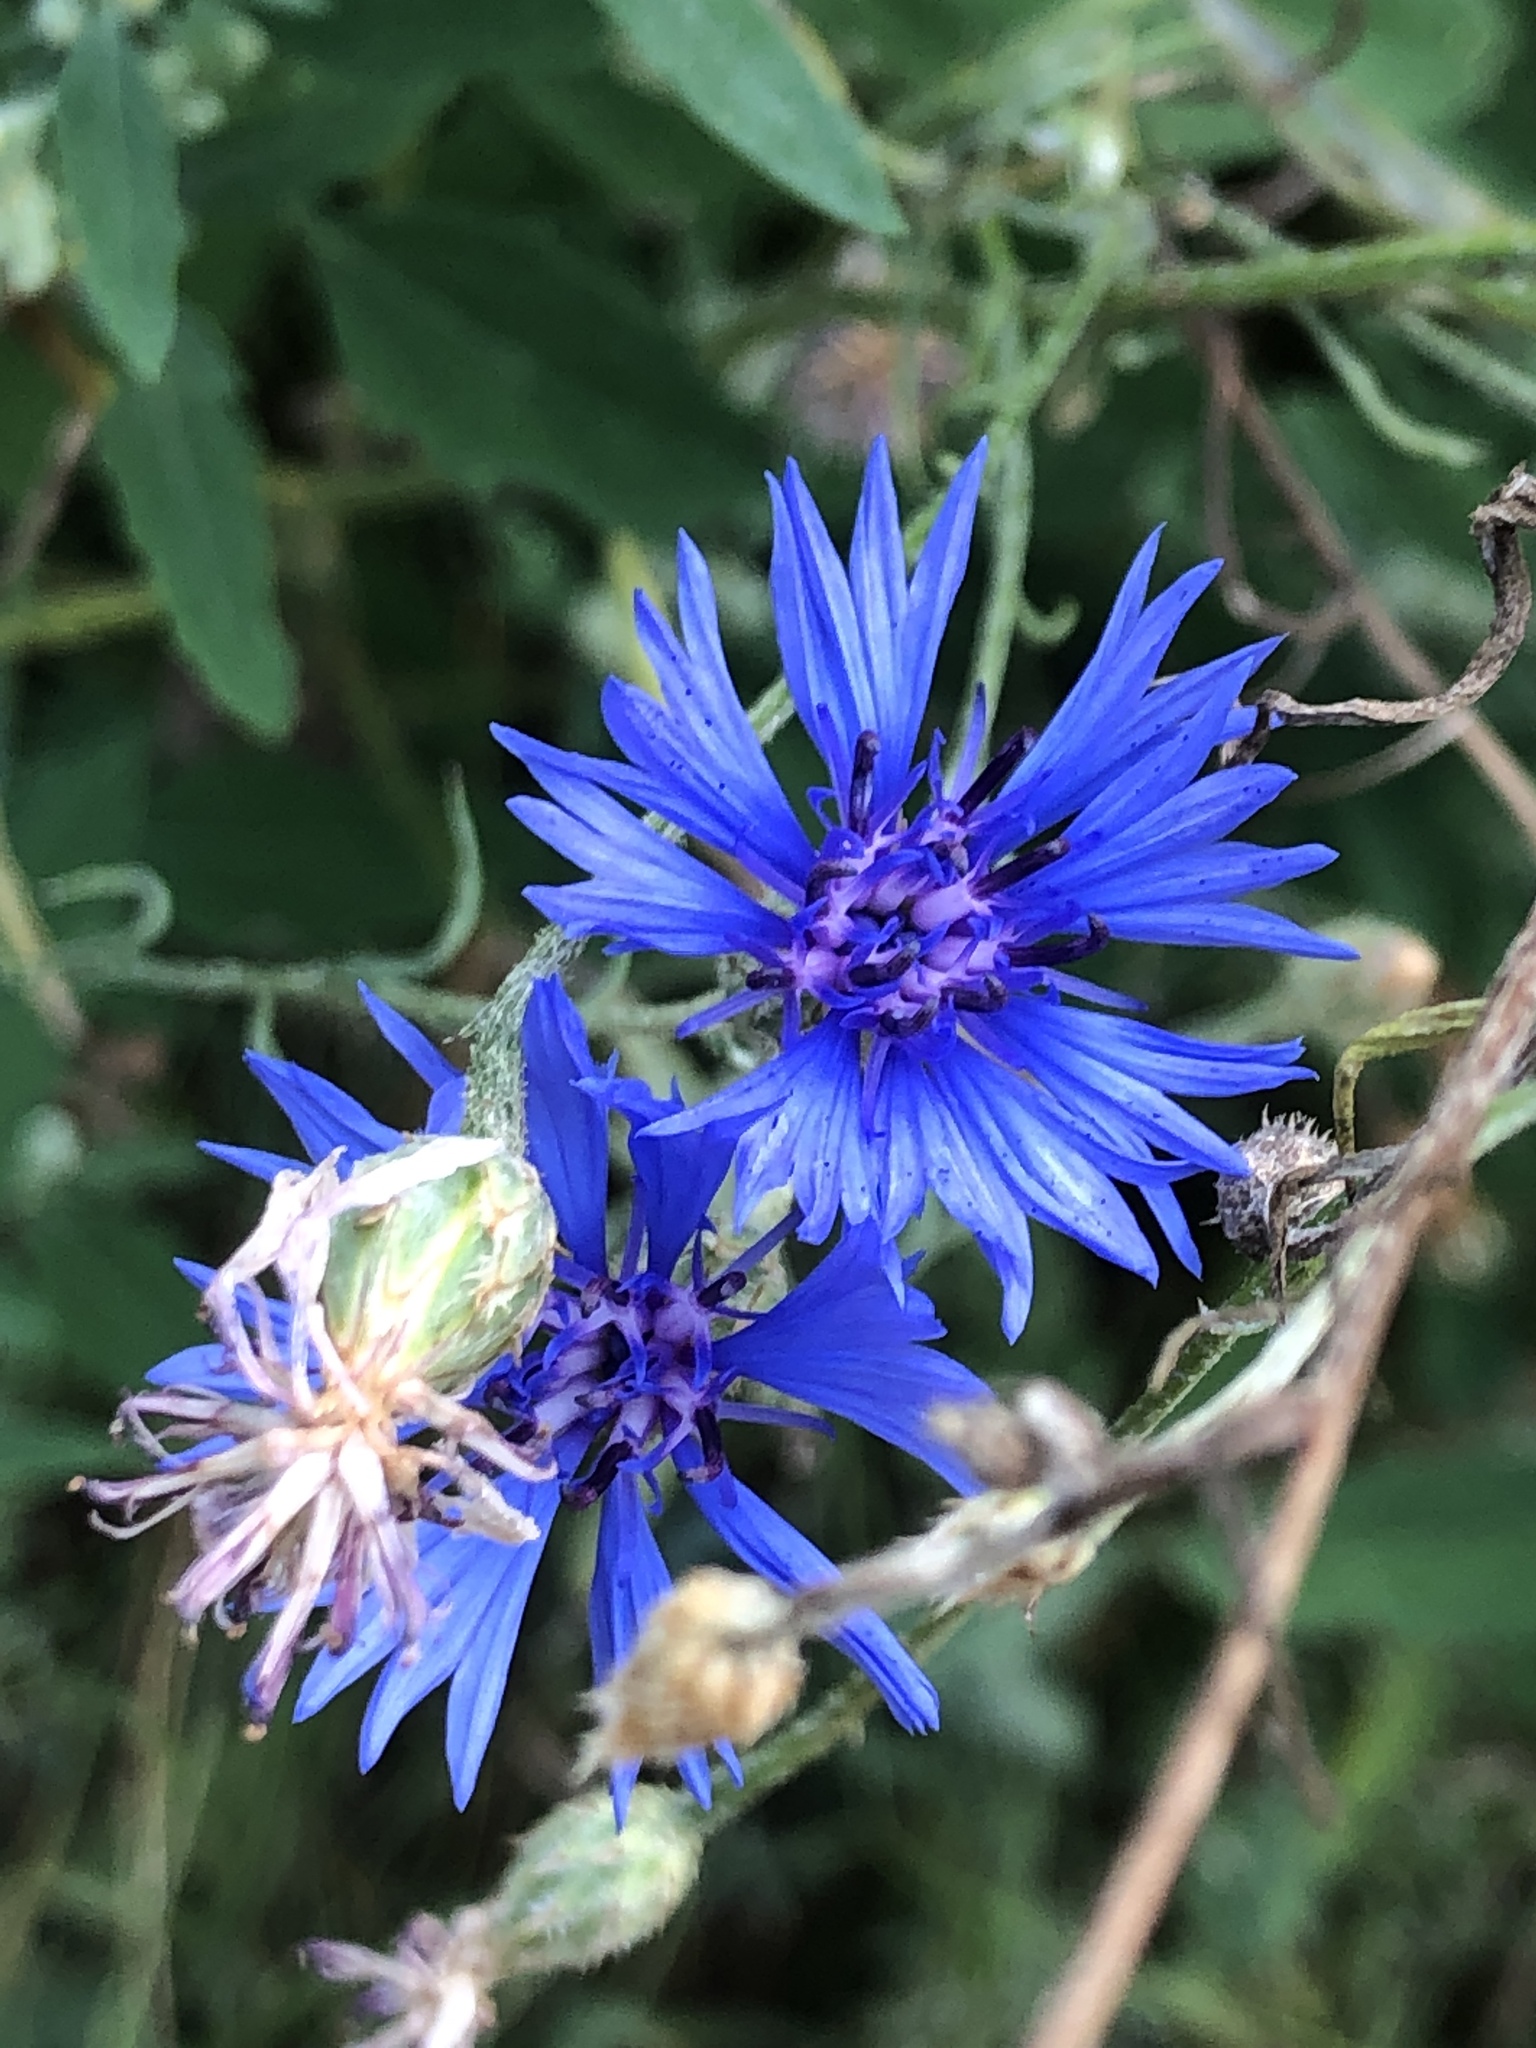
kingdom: Plantae
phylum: Tracheophyta
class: Magnoliopsida
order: Asterales
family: Asteraceae
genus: Centaurea
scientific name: Centaurea cyanus
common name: Cornflower
